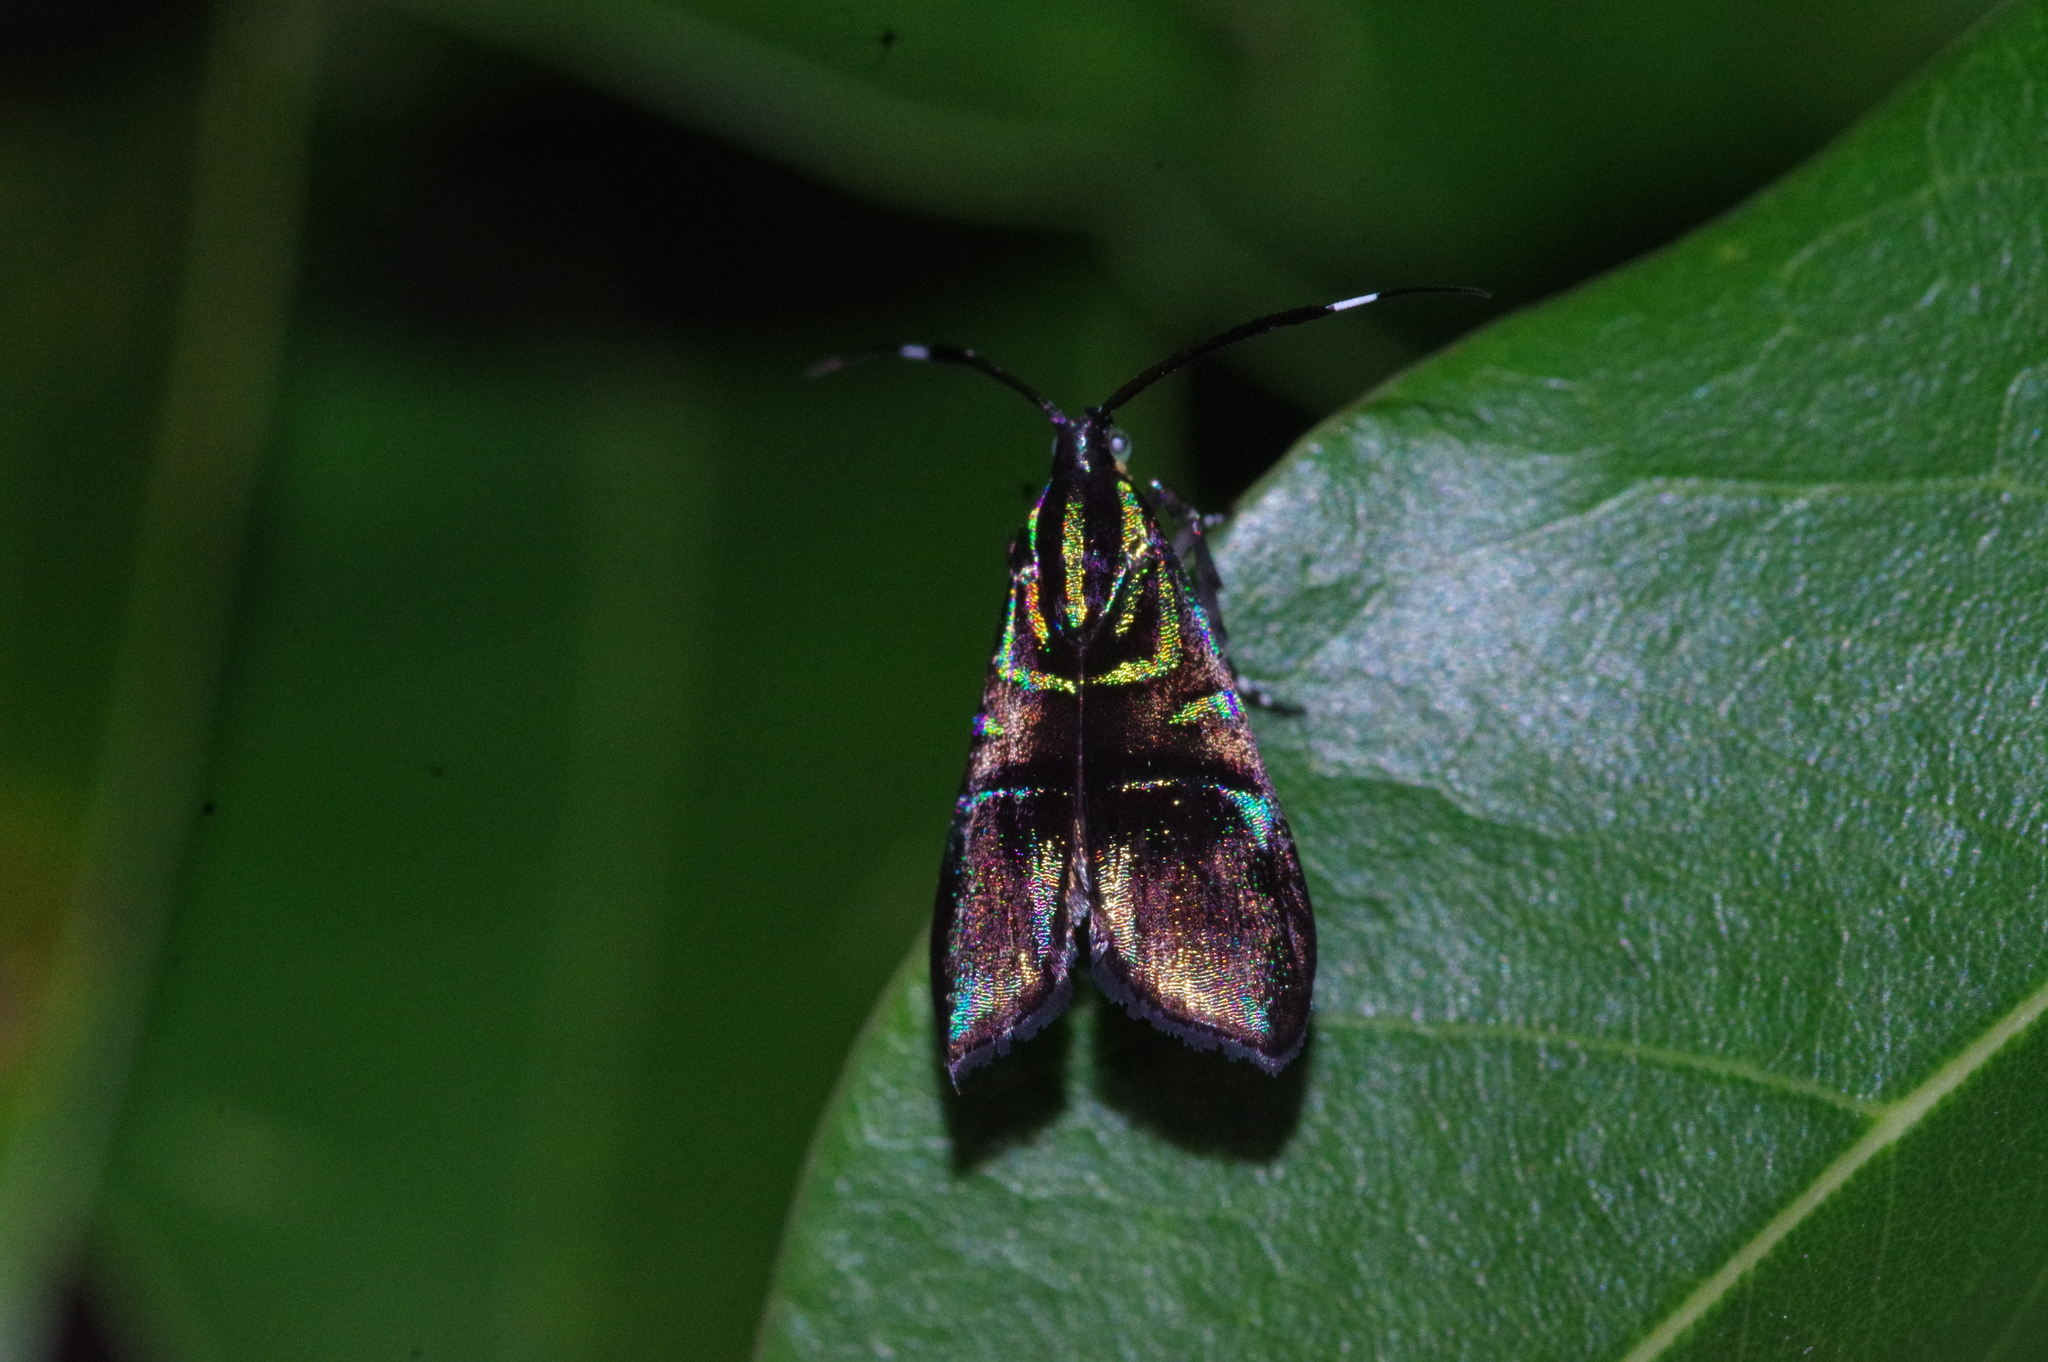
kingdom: Animalia
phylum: Arthropoda
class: Insecta
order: Lepidoptera
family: Choreutidae
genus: Saptha
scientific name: Saptha divitiosa
